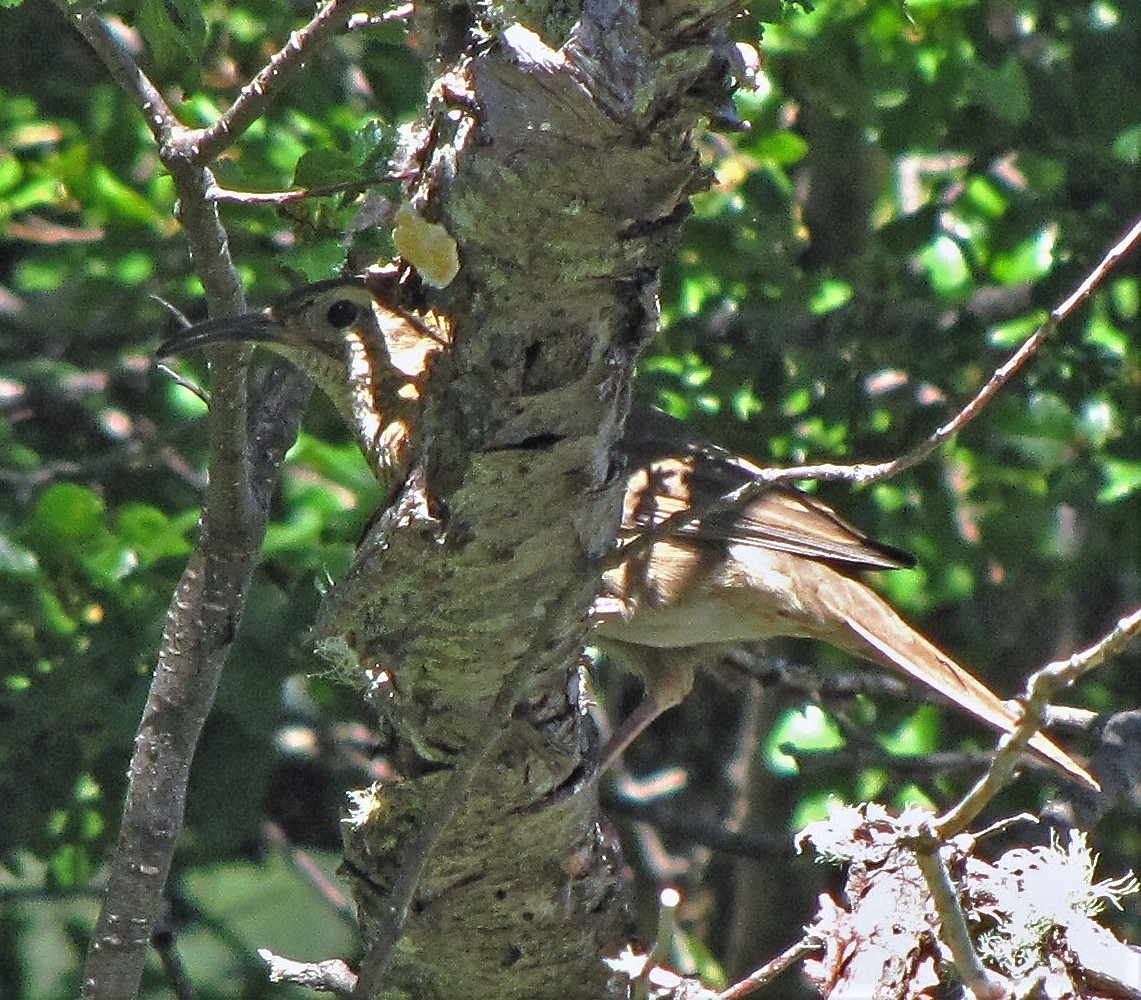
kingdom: Animalia
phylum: Chordata
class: Aves
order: Passeriformes
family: Furnariidae
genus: Upucerthia
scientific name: Upucerthia saturatior
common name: Patagonian forest earthcreeper
